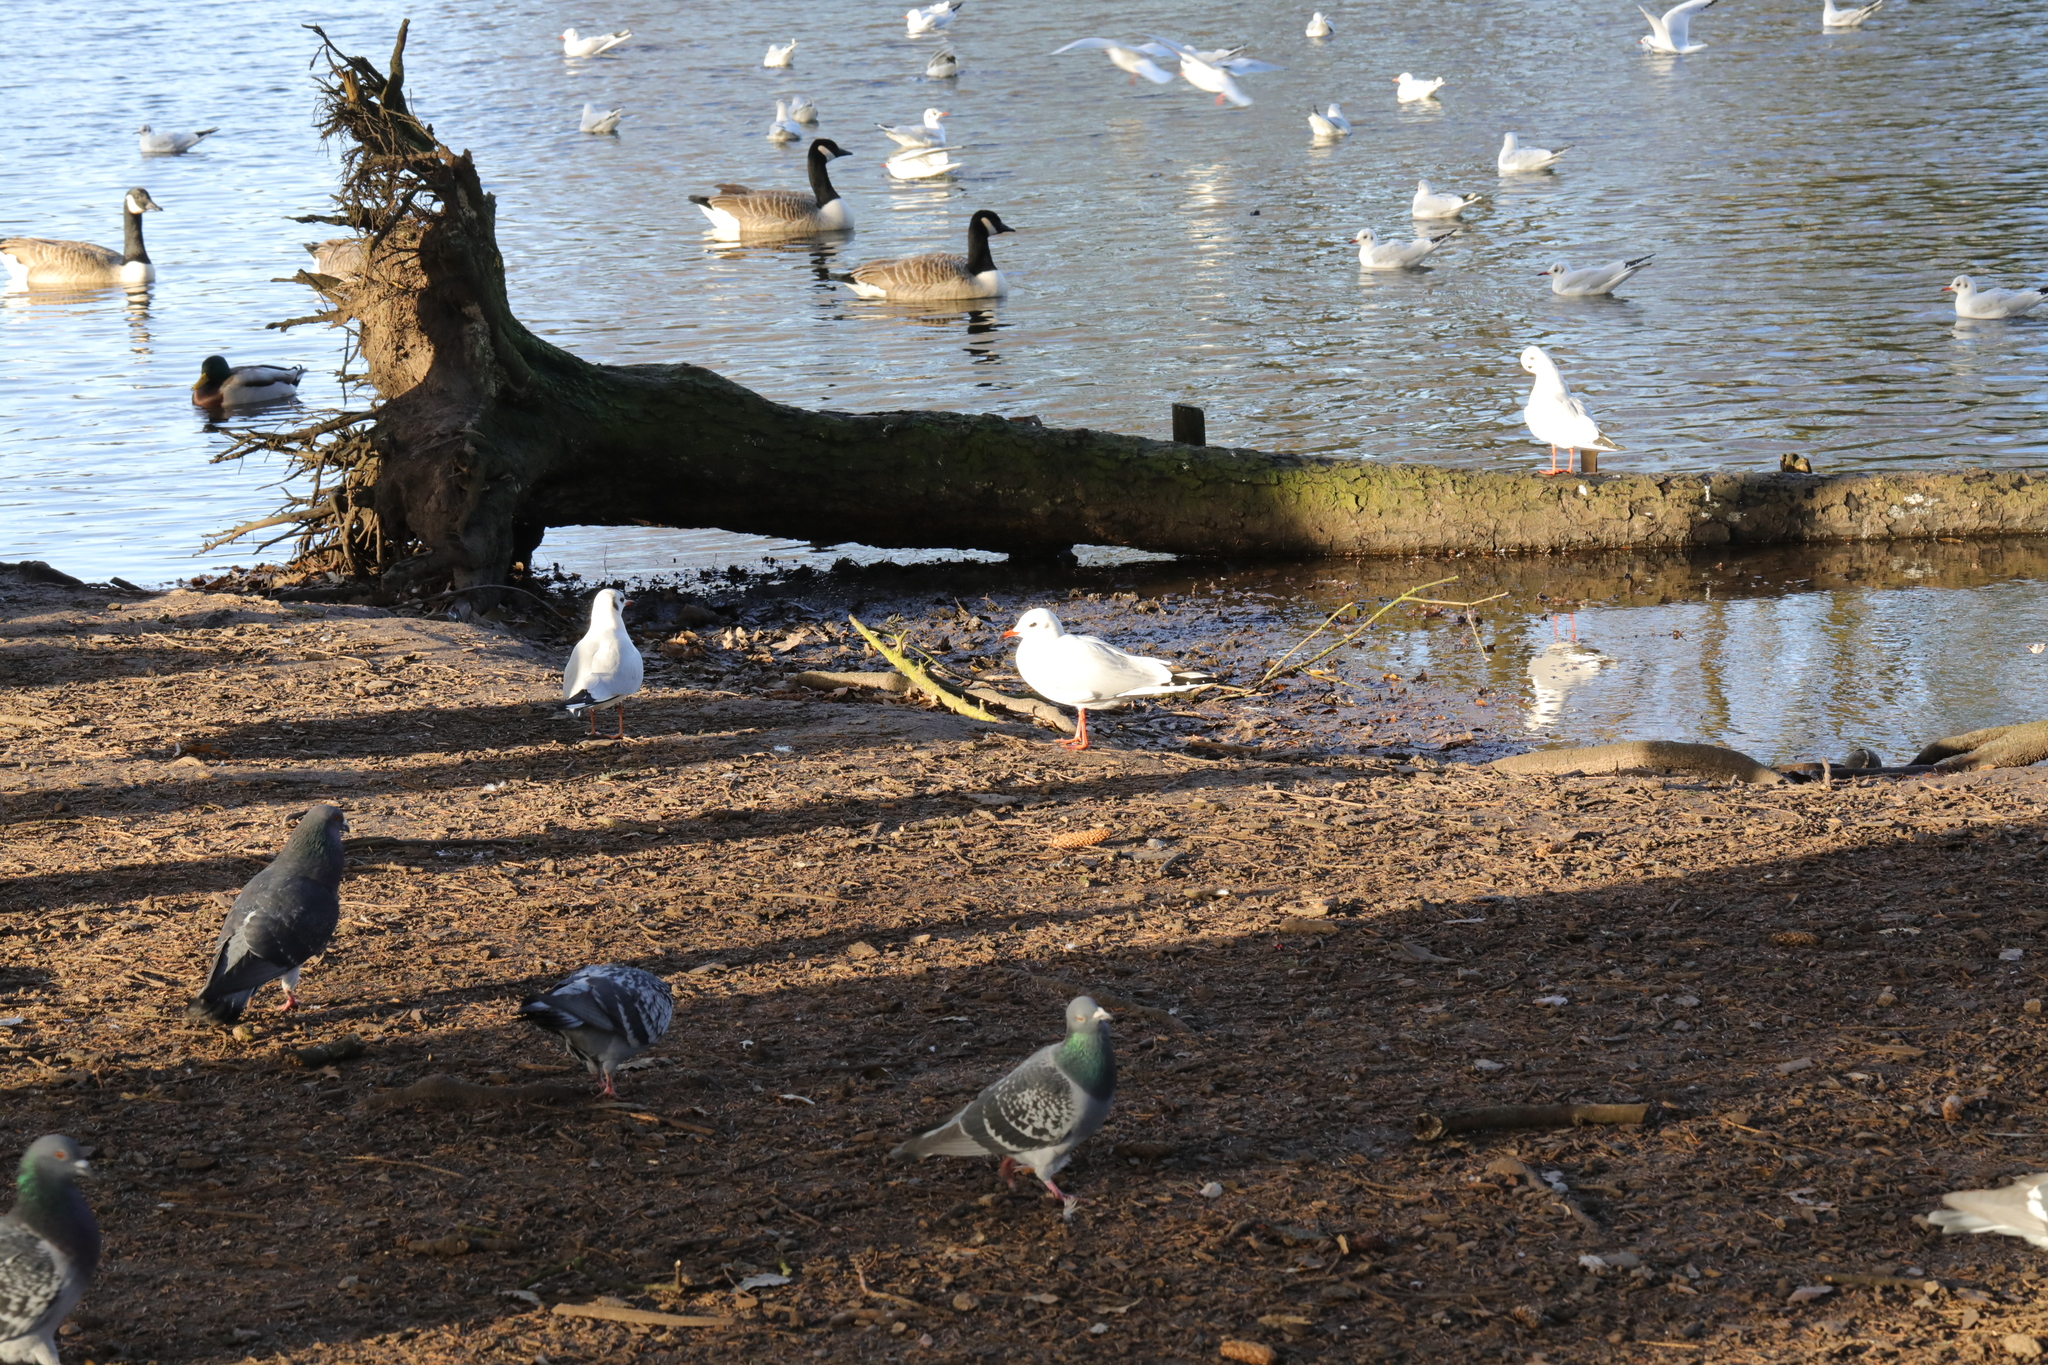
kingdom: Animalia
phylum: Chordata
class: Aves
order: Charadriiformes
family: Laridae
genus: Chroicocephalus
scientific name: Chroicocephalus ridibundus
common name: Black-headed gull
